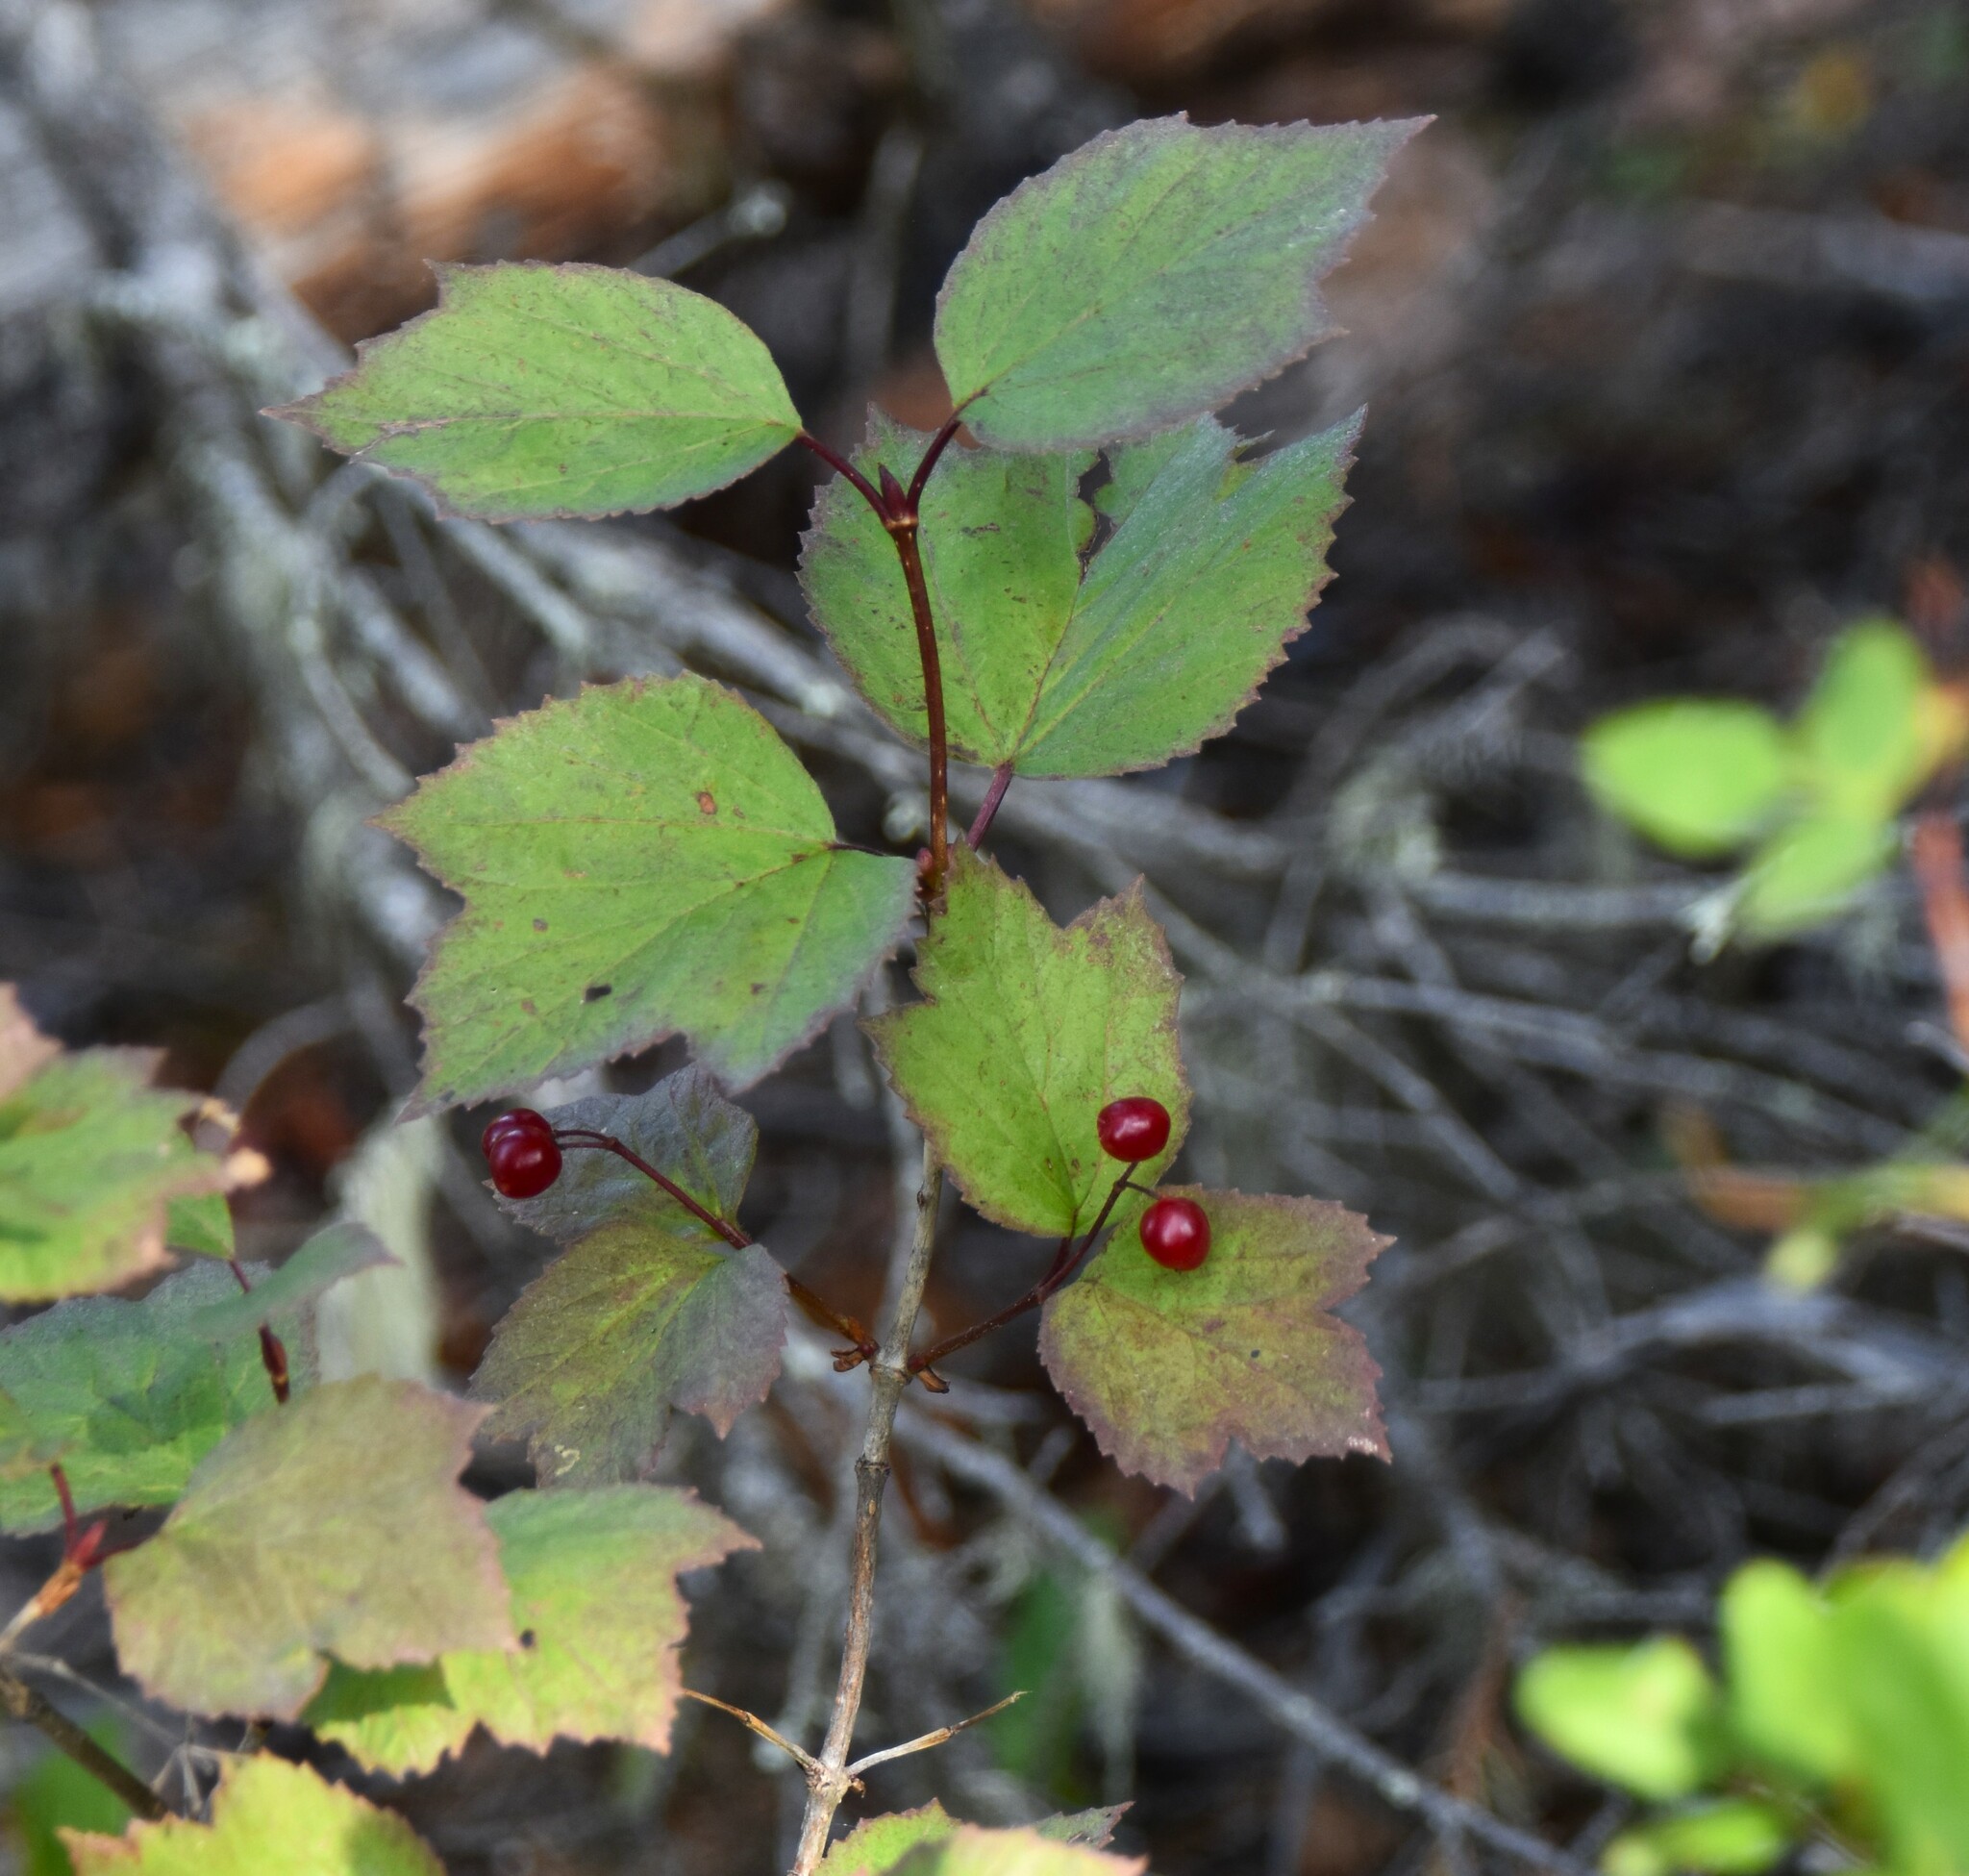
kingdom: Plantae
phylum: Tracheophyta
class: Magnoliopsida
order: Dipsacales
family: Viburnaceae
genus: Viburnum
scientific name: Viburnum edule
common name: Mooseberry
